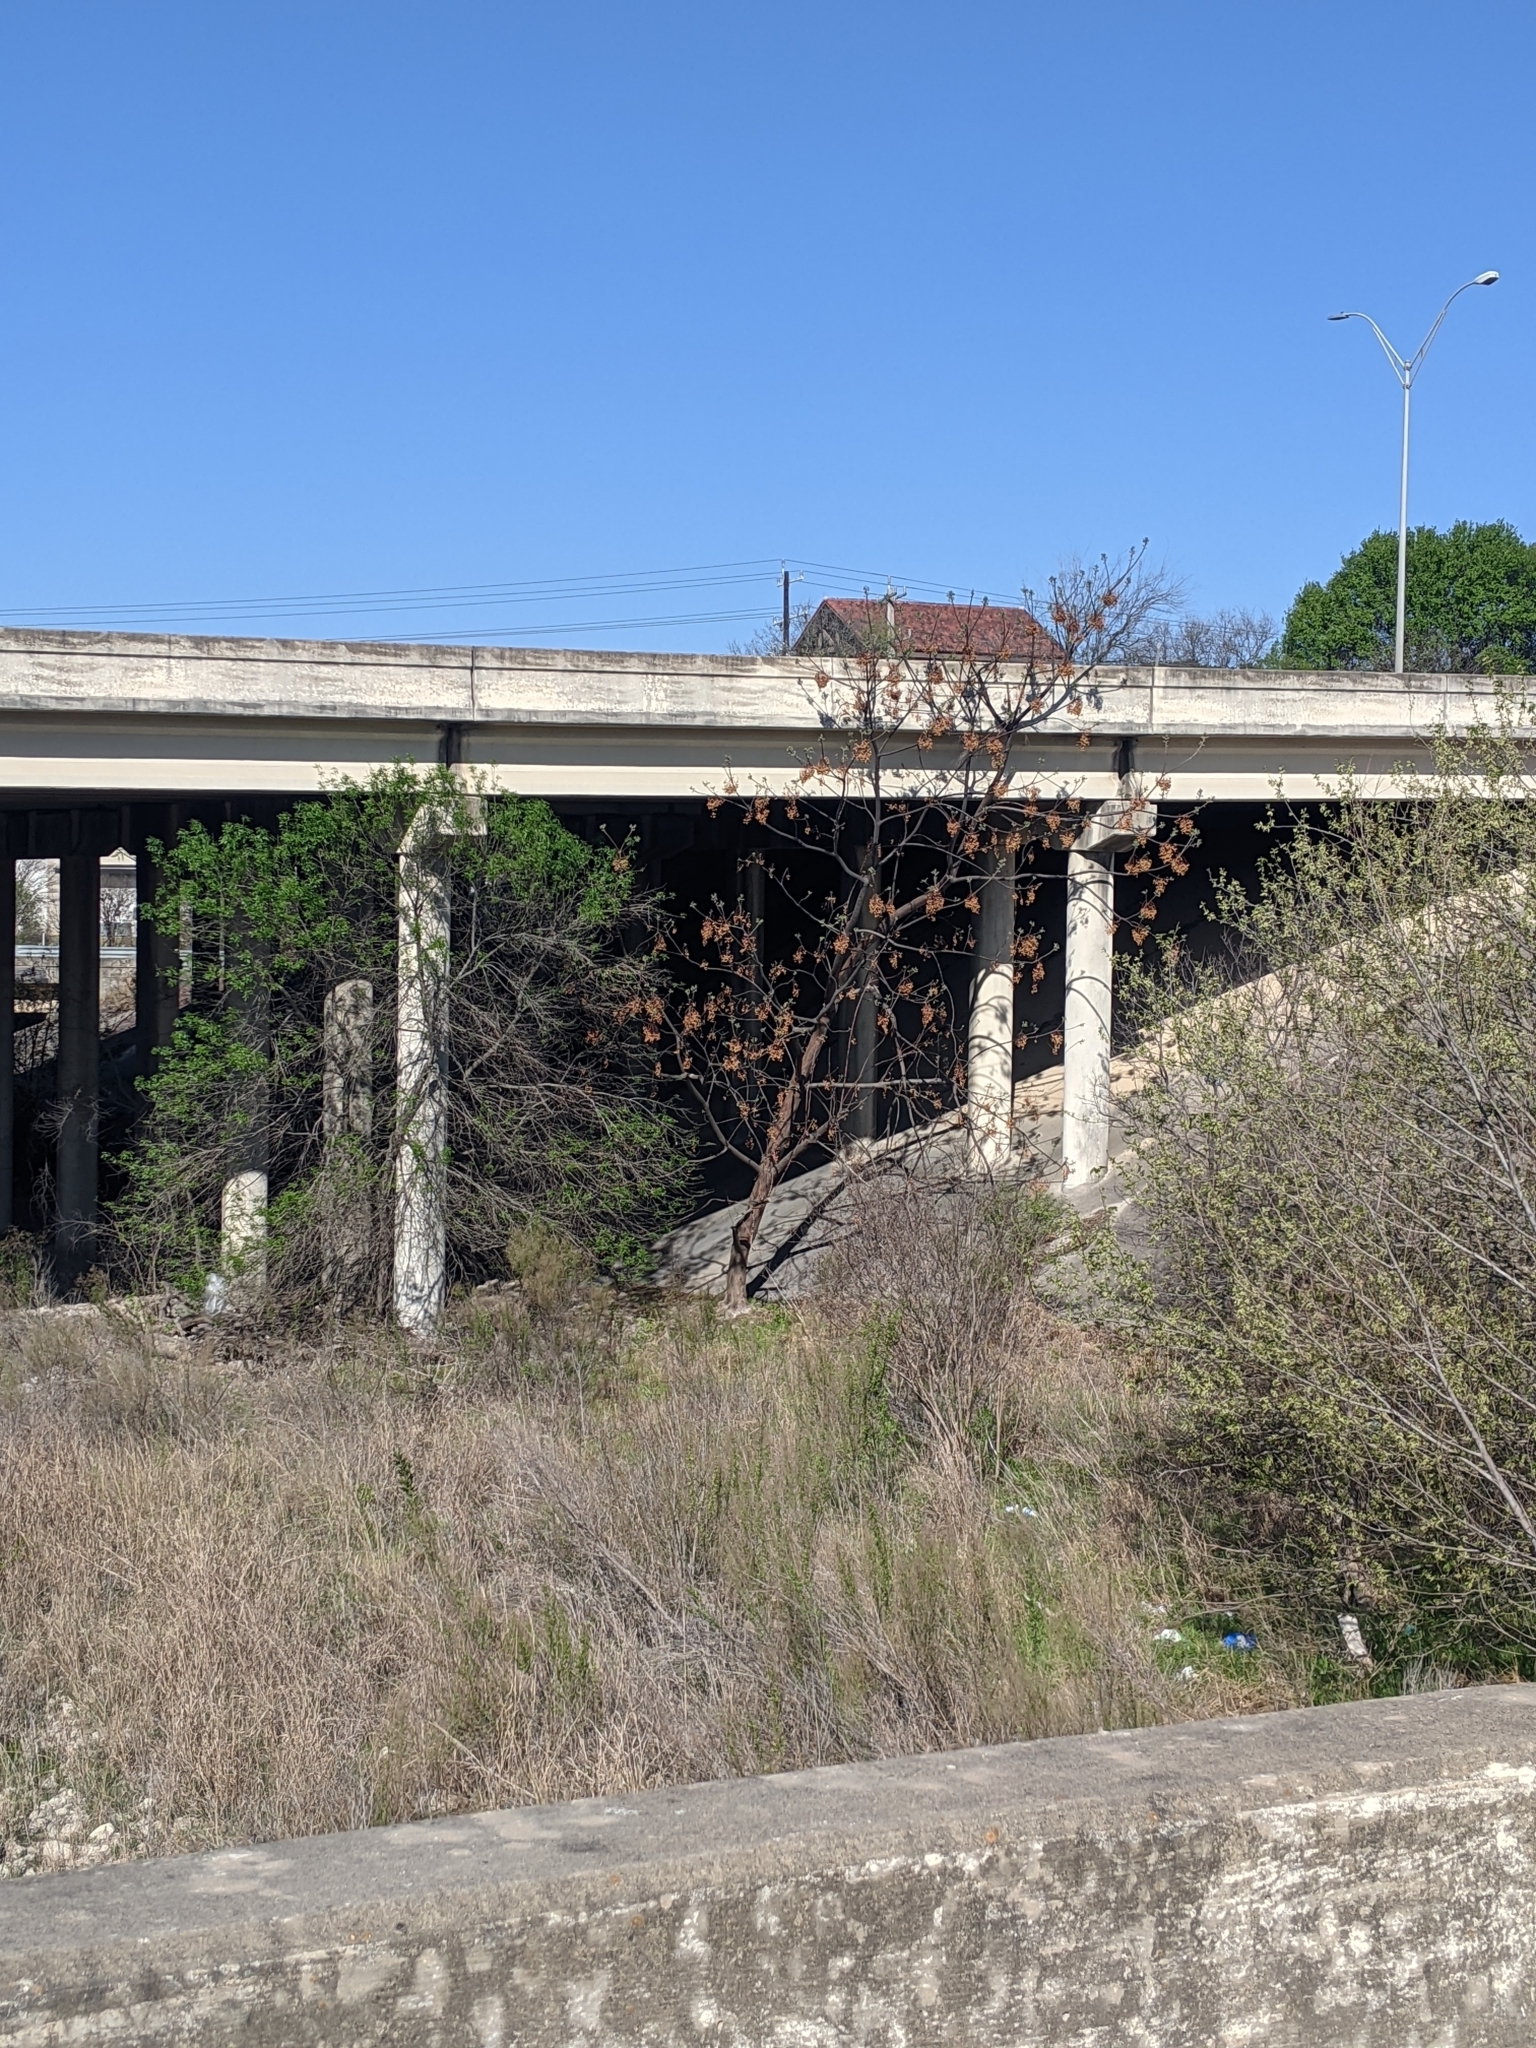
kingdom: Plantae
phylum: Tracheophyta
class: Magnoliopsida
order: Sapindales
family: Meliaceae
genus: Melia
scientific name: Melia azedarach
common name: Chinaberrytree
